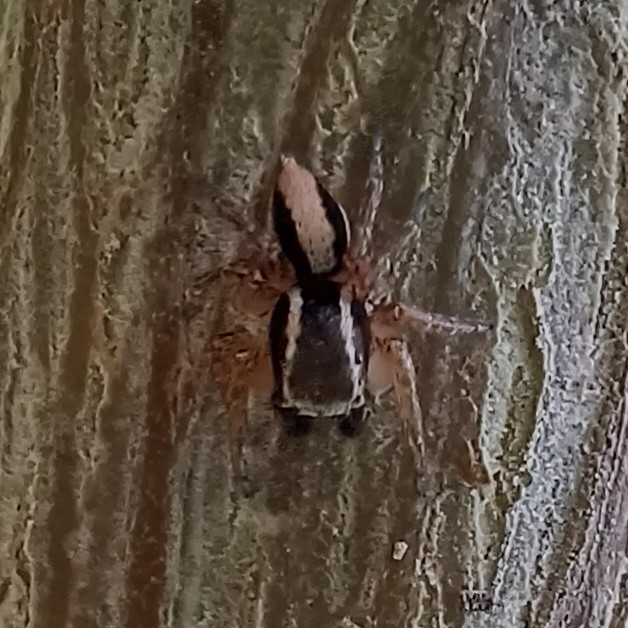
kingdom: Animalia
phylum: Arthropoda
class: Arachnida
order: Araneae
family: Salticidae
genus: Aphirape
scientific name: Aphirape flexa
